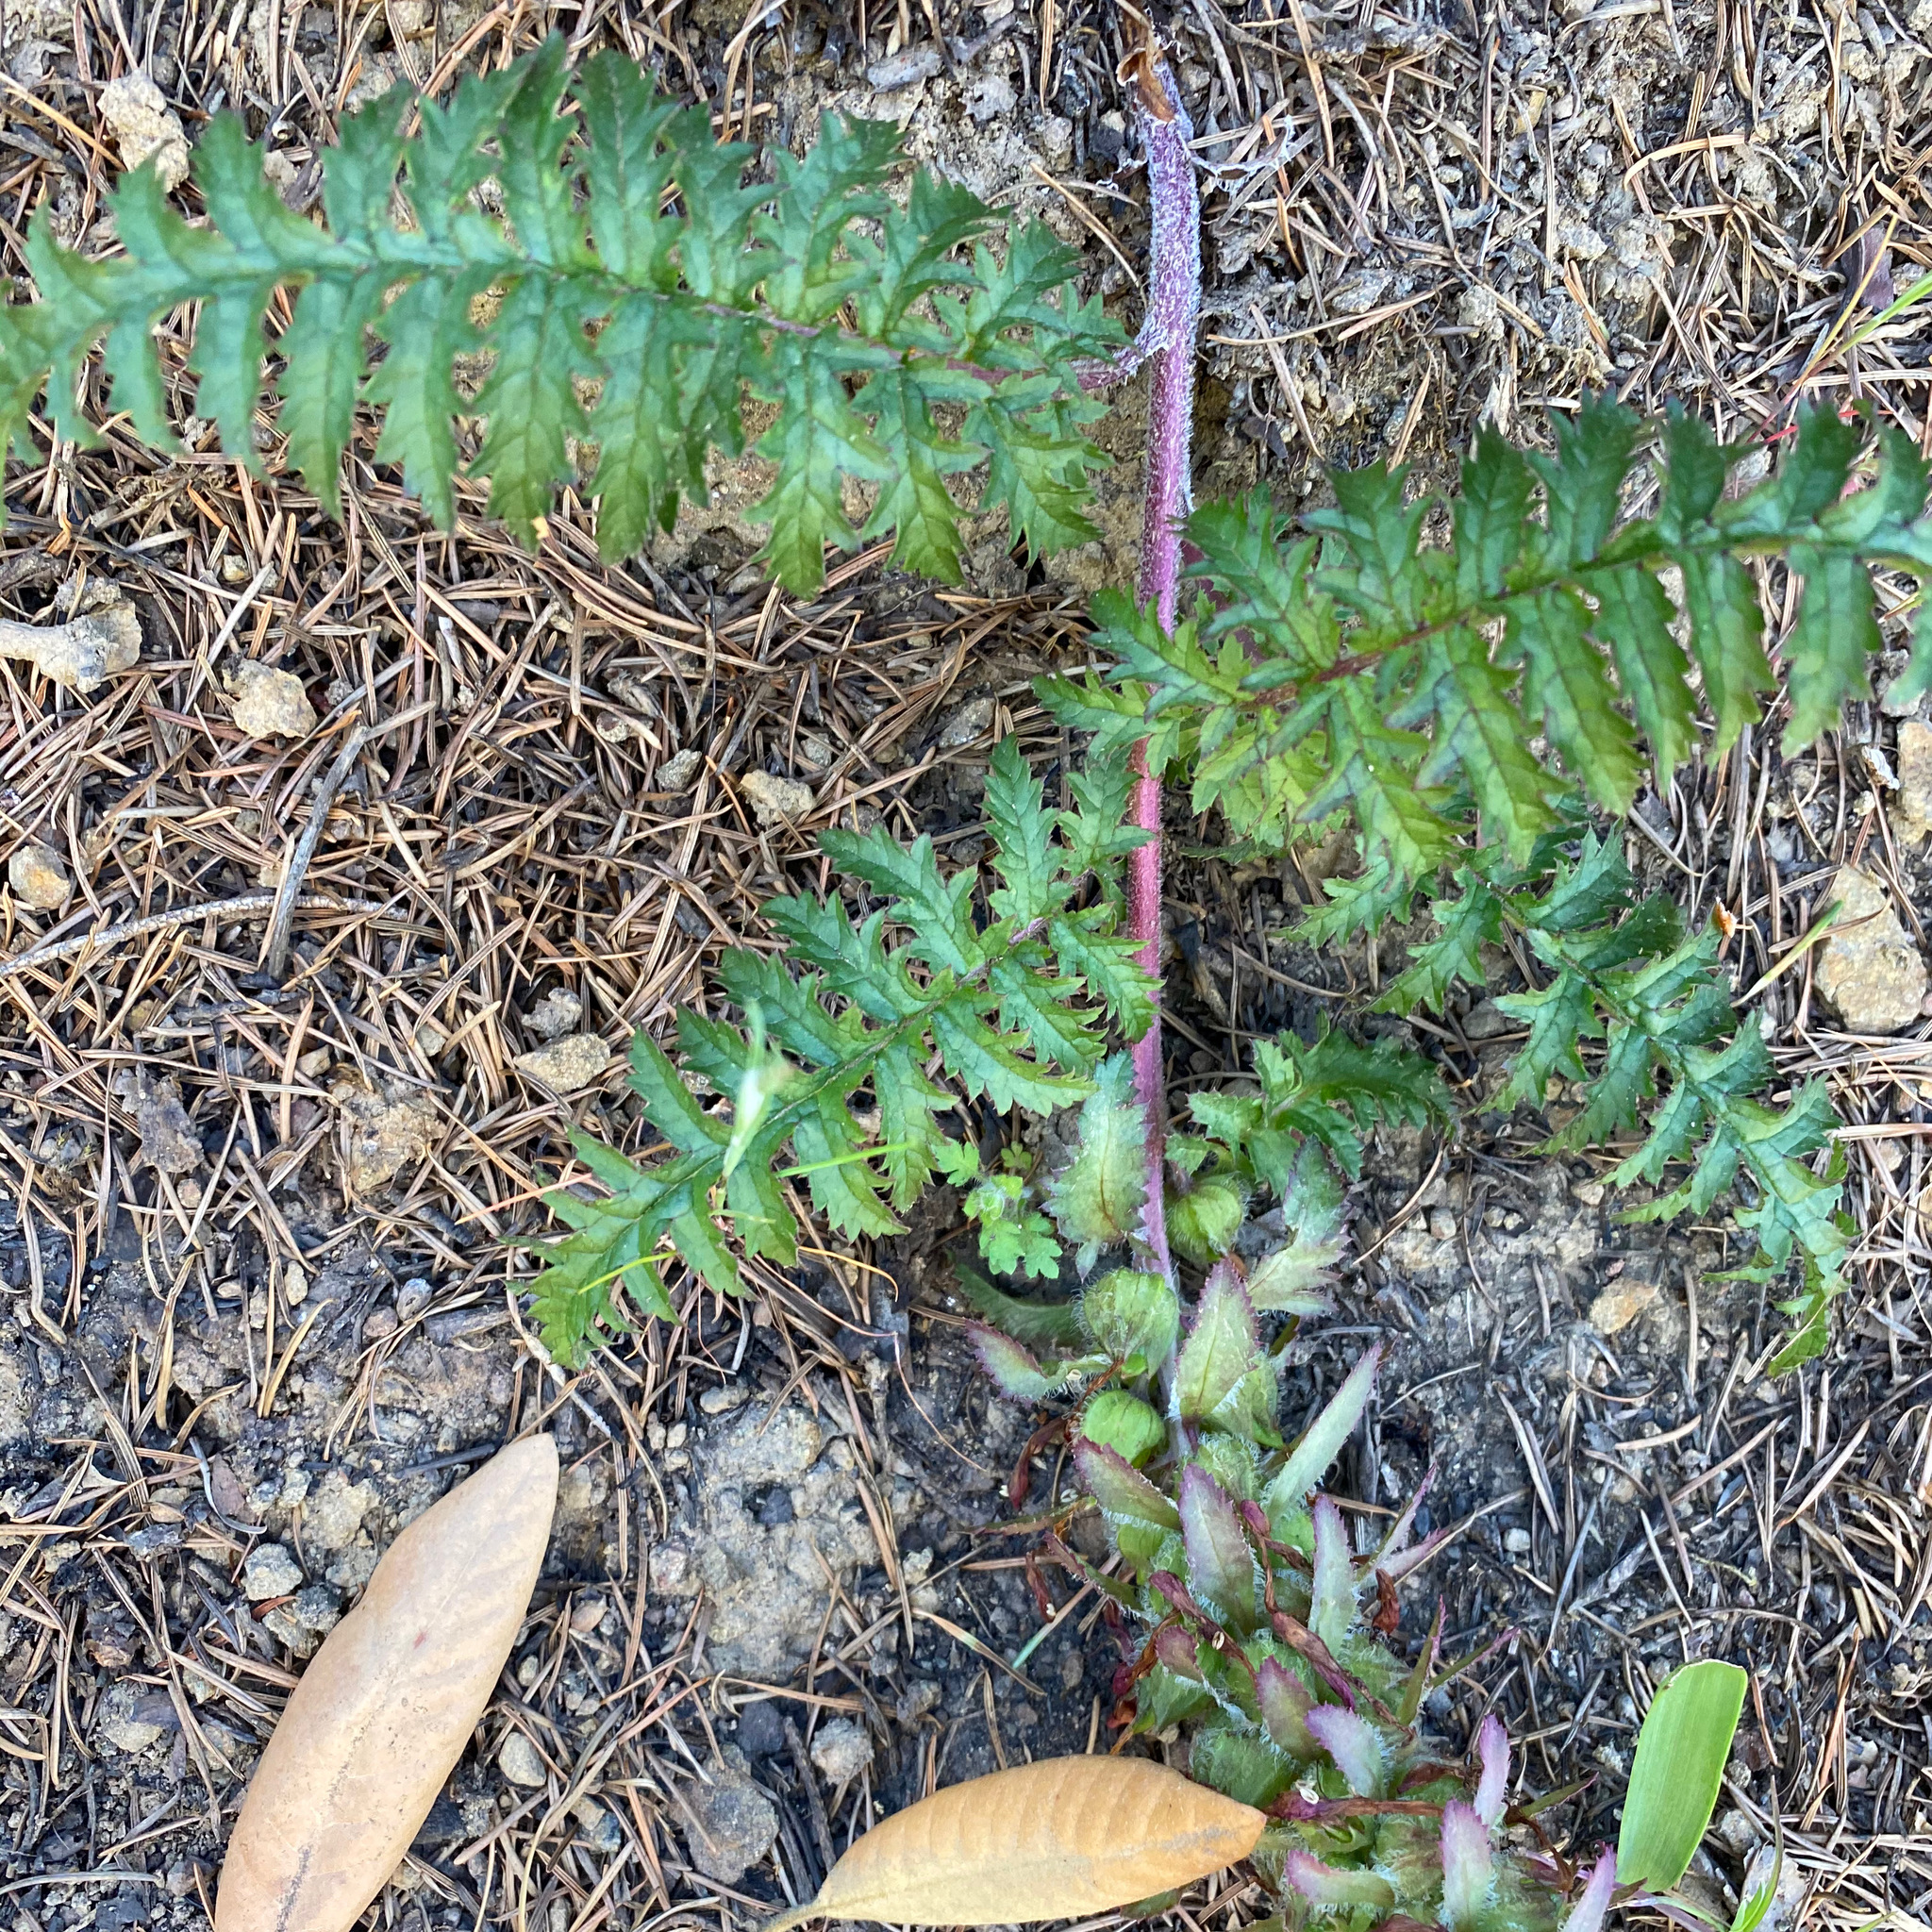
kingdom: Plantae
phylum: Tracheophyta
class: Magnoliopsida
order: Lamiales
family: Orobanchaceae
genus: Pedicularis
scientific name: Pedicularis densiflora
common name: Indian warrior
